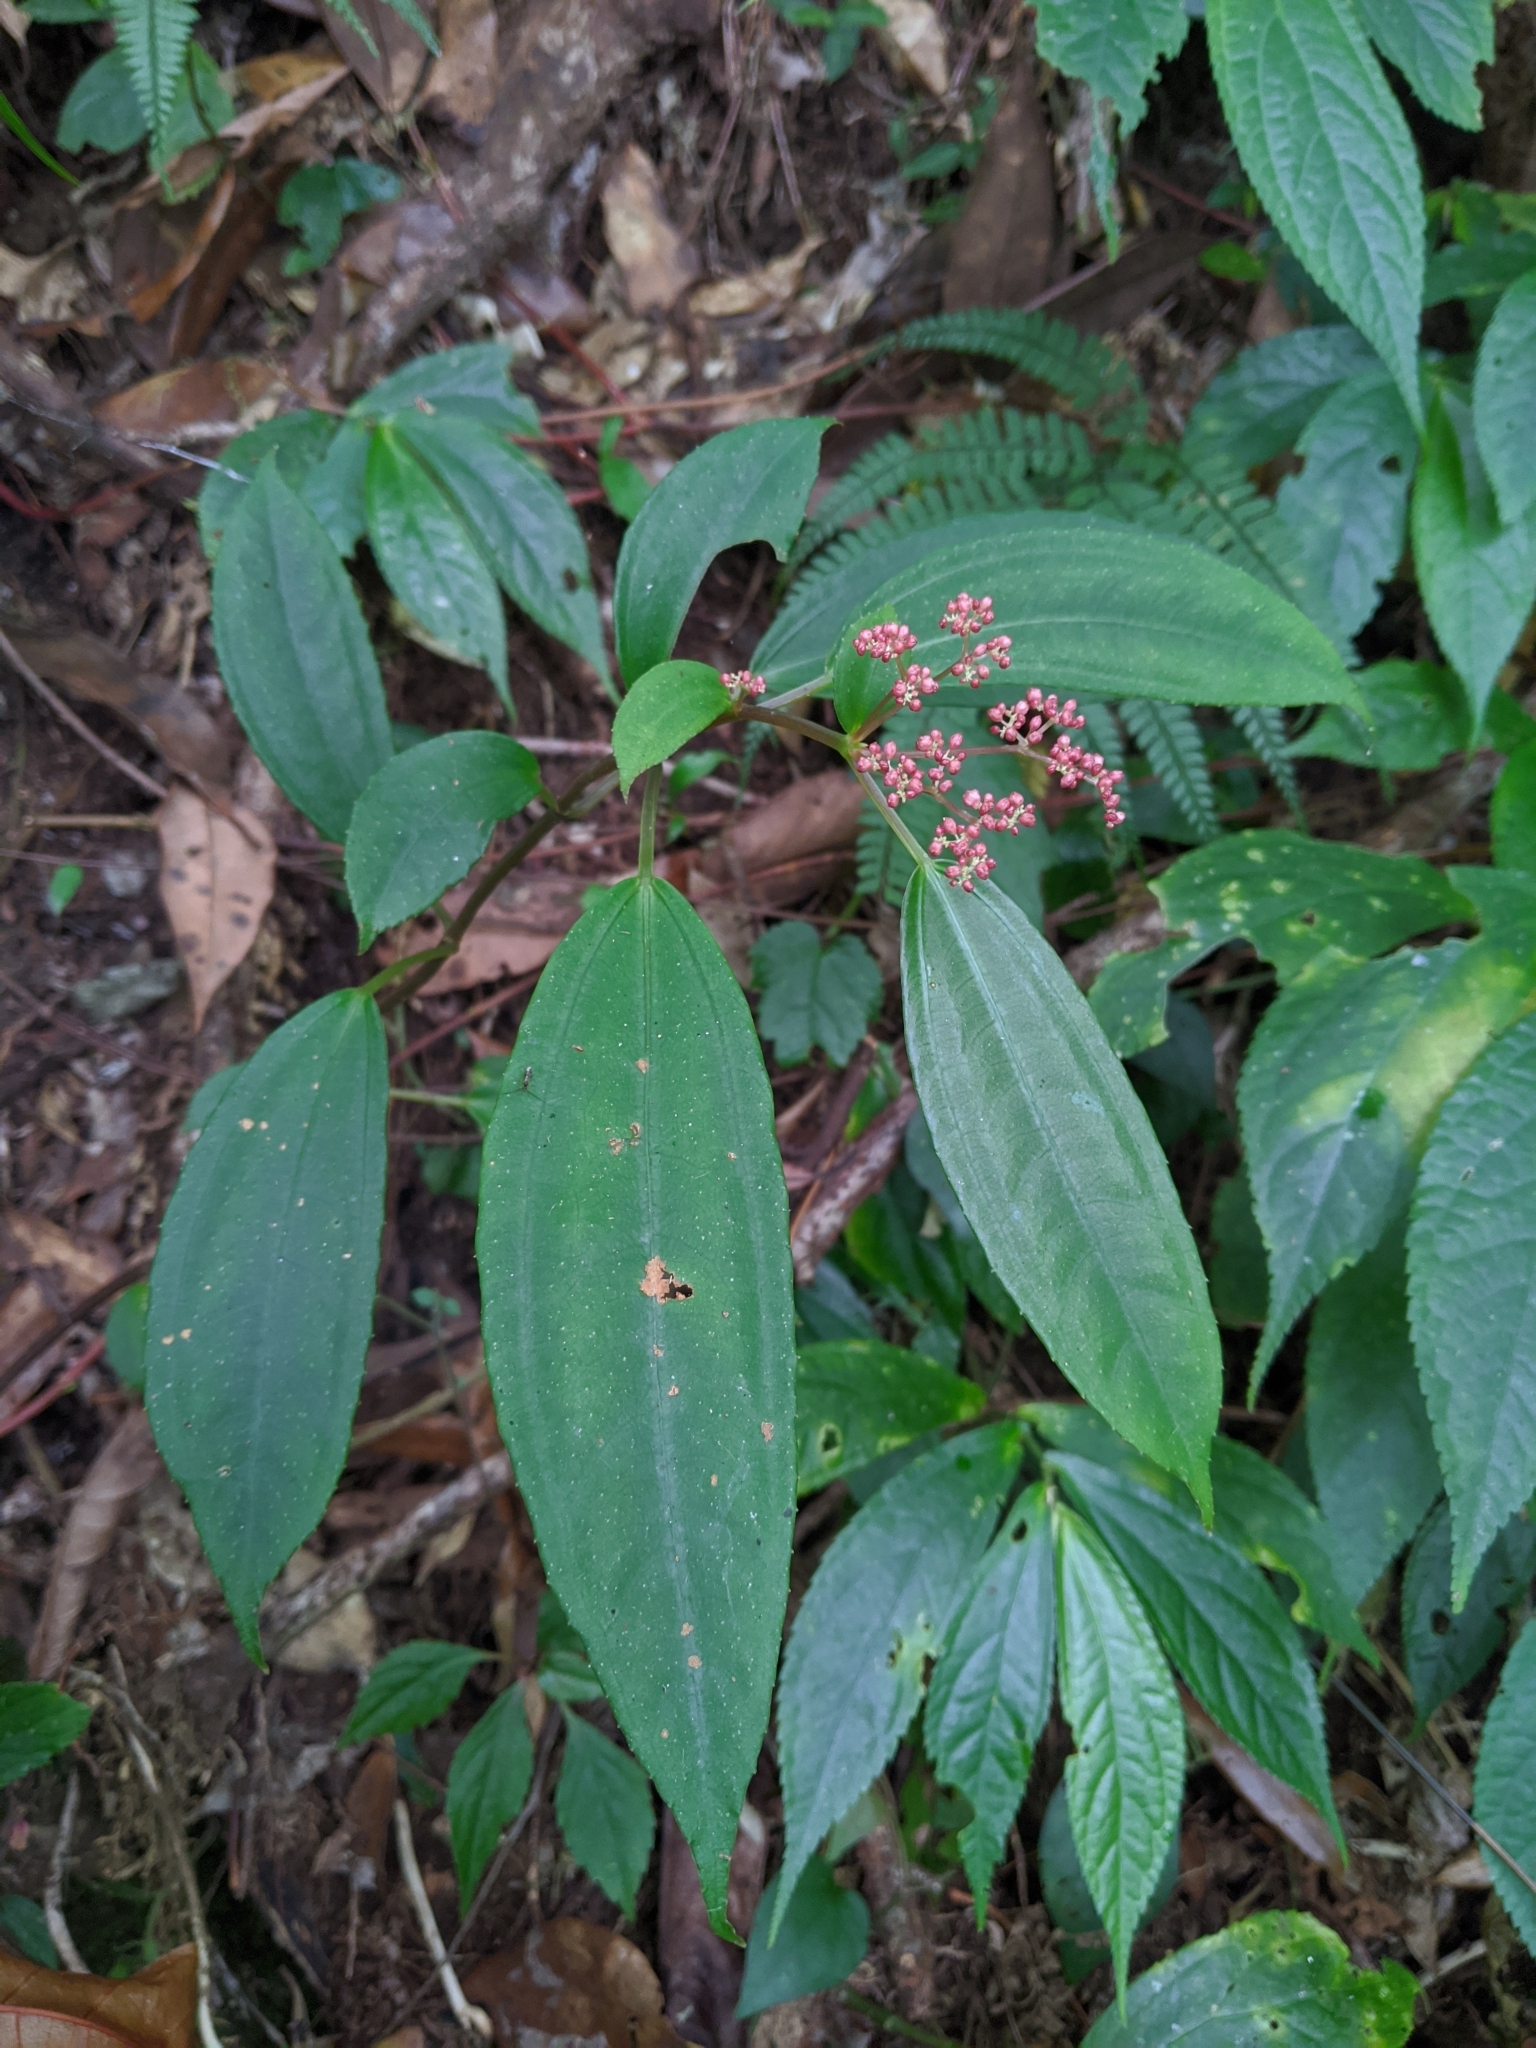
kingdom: Plantae
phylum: Tracheophyta
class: Magnoliopsida
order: Rosales
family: Urticaceae
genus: Pilea
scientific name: Pilea somae
